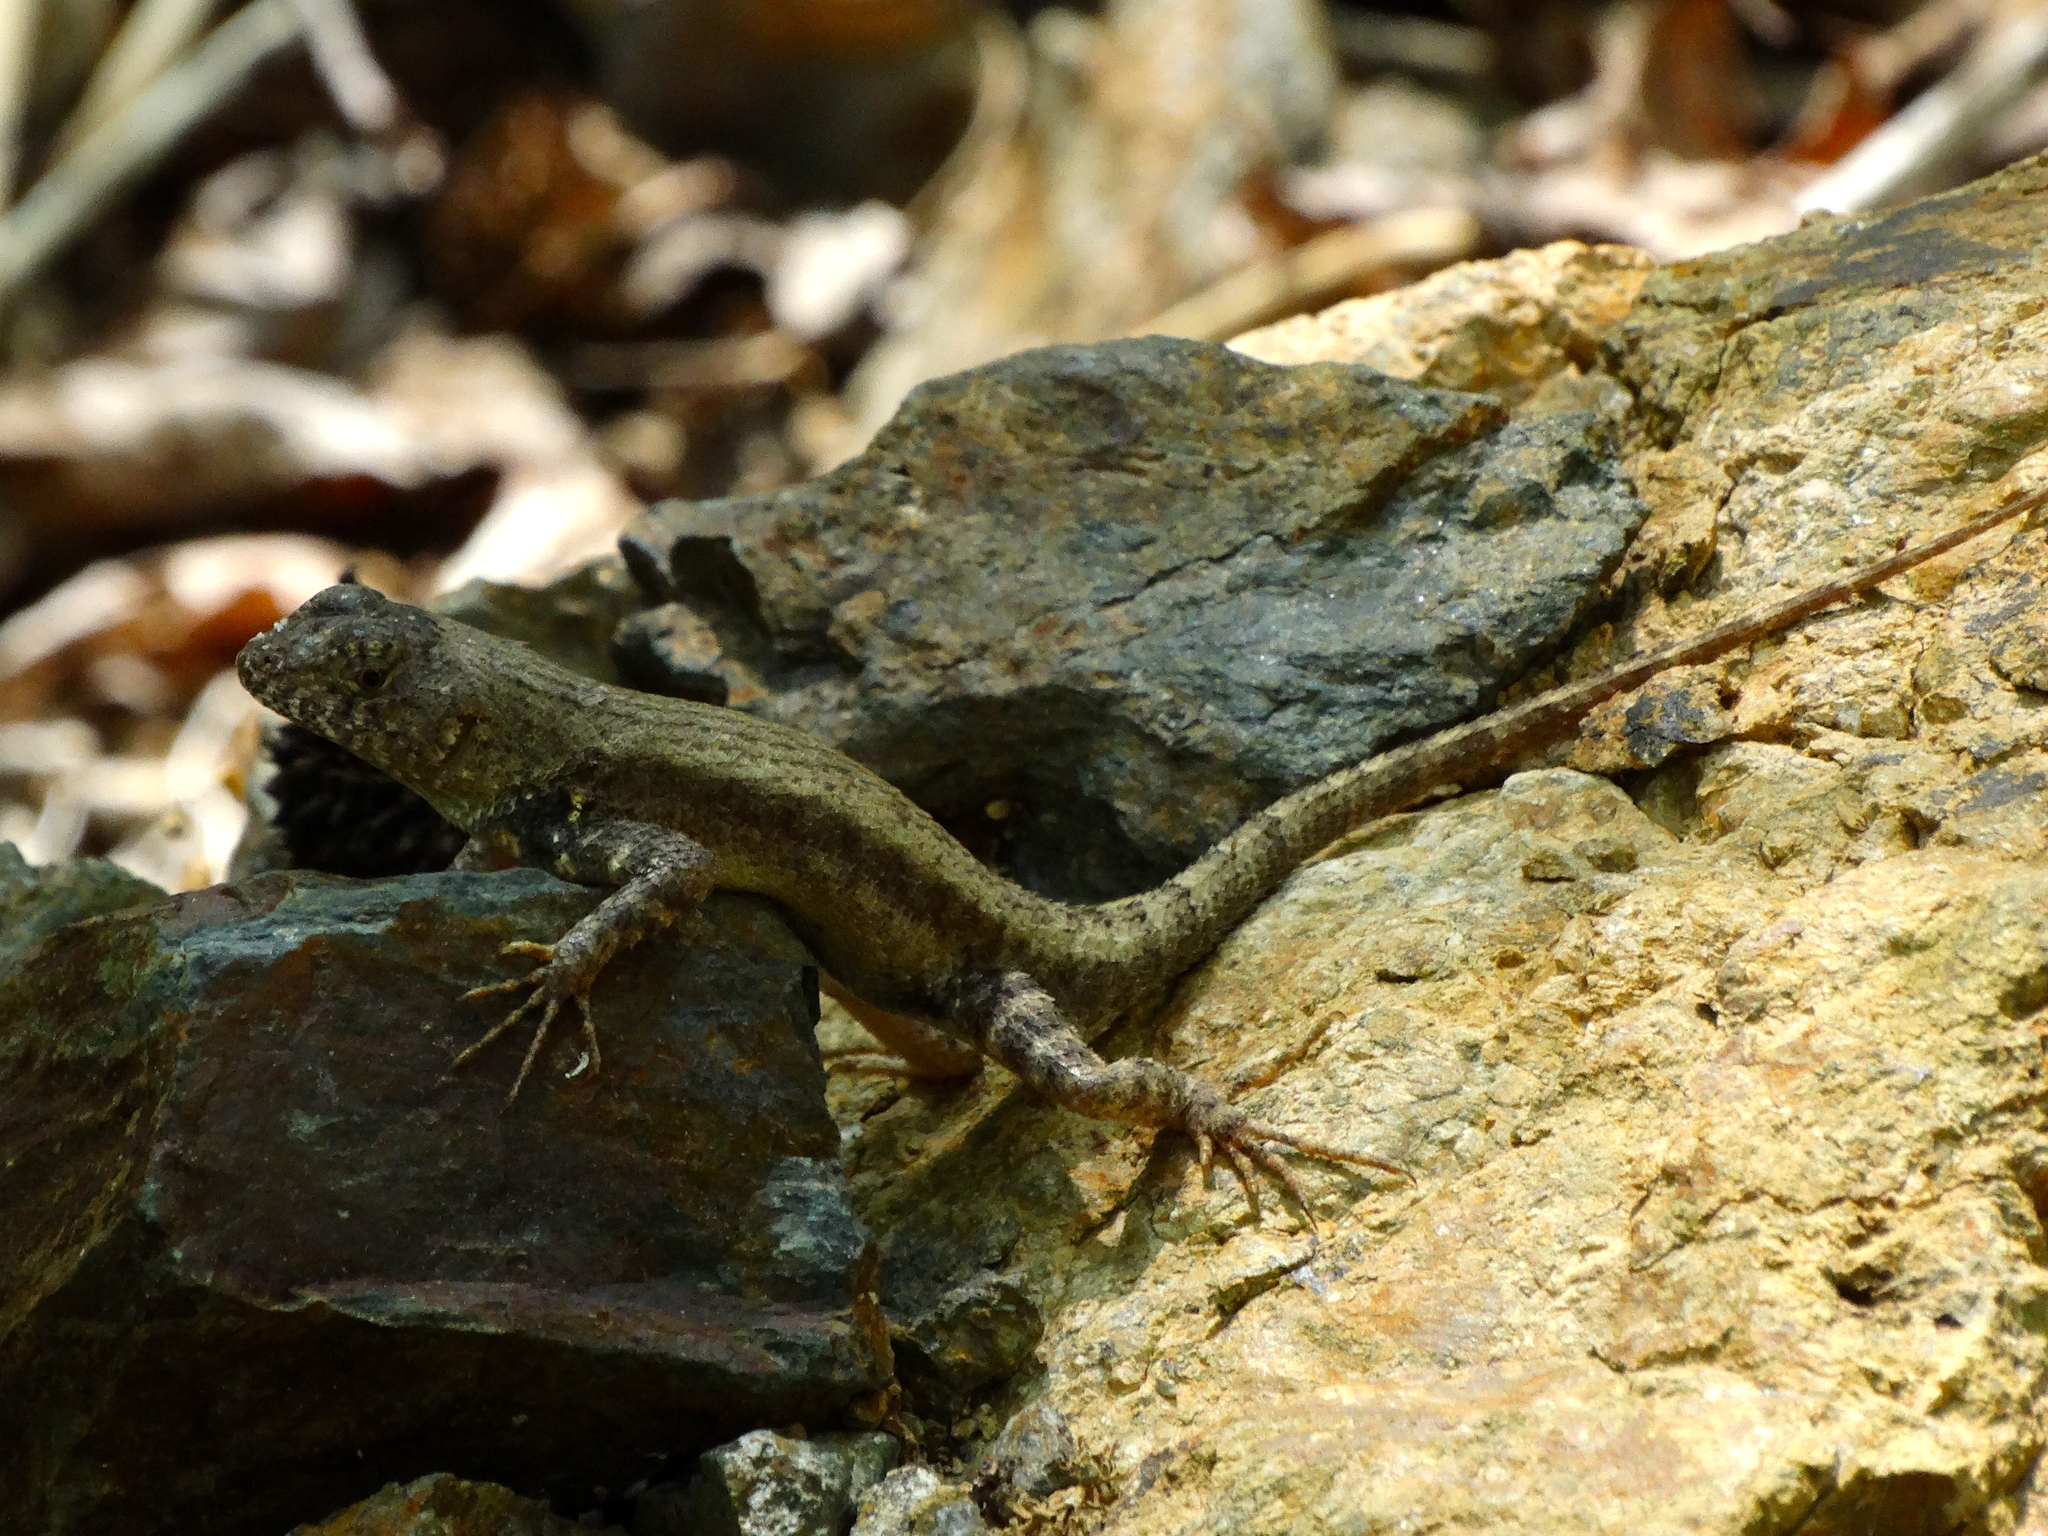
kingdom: Animalia
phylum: Chordata
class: Squamata
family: Phrynosomatidae
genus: Sceloporus
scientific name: Sceloporus nelsoni
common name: Nelson's spiny lizard
